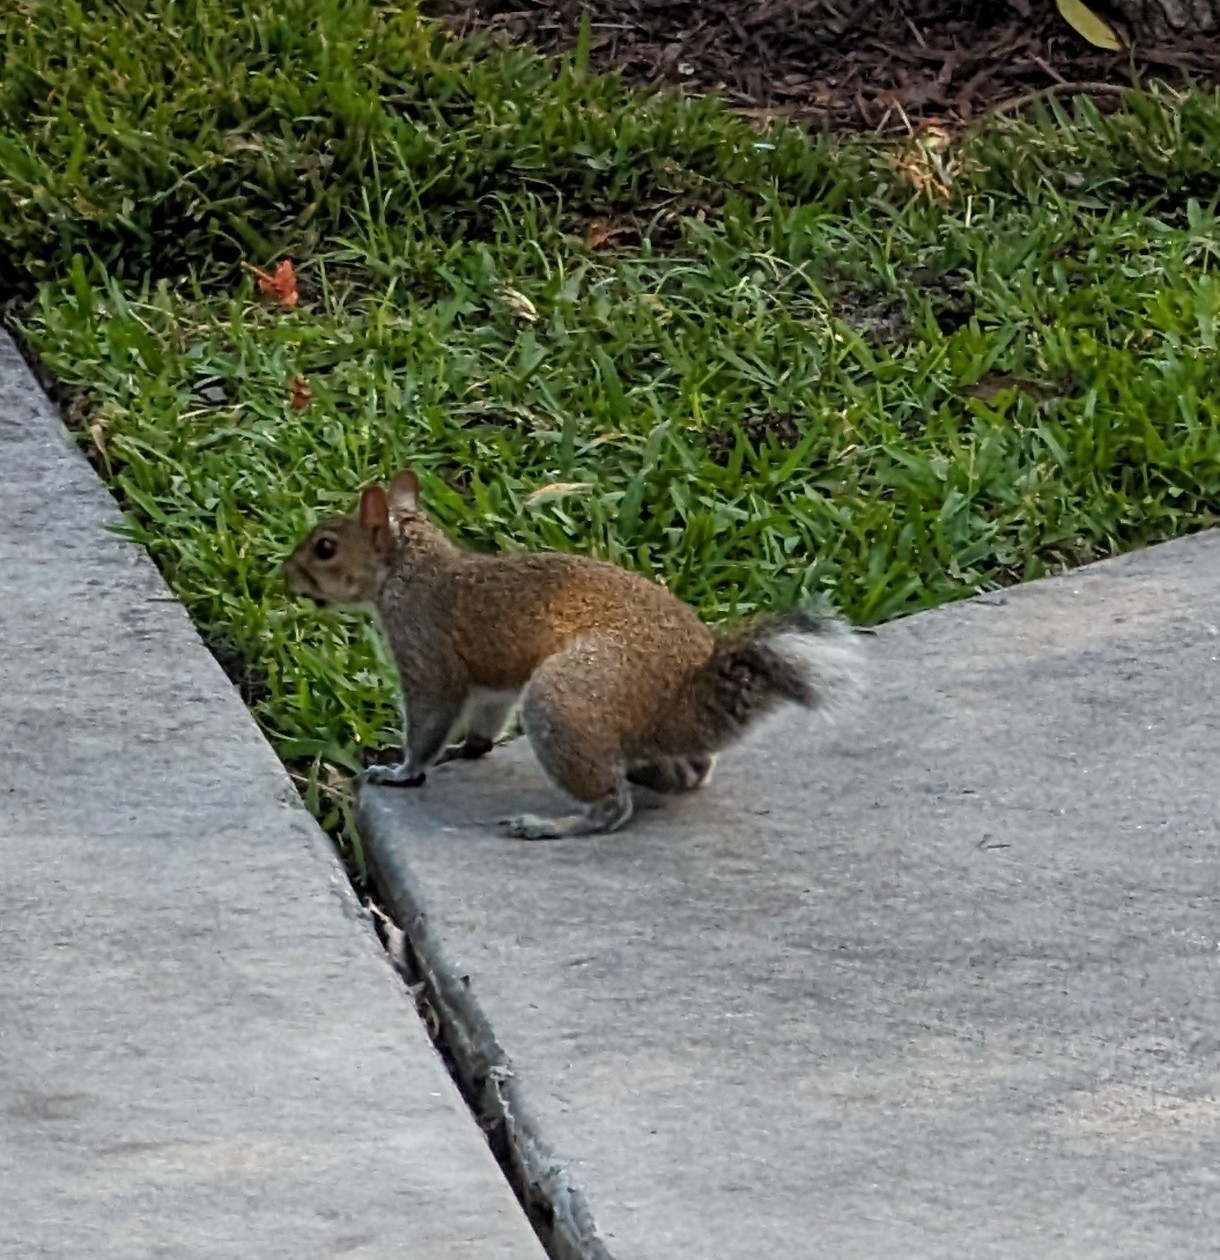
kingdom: Animalia
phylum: Chordata
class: Mammalia
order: Rodentia
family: Sciuridae
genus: Sciurus
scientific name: Sciurus carolinensis
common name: Eastern gray squirrel
